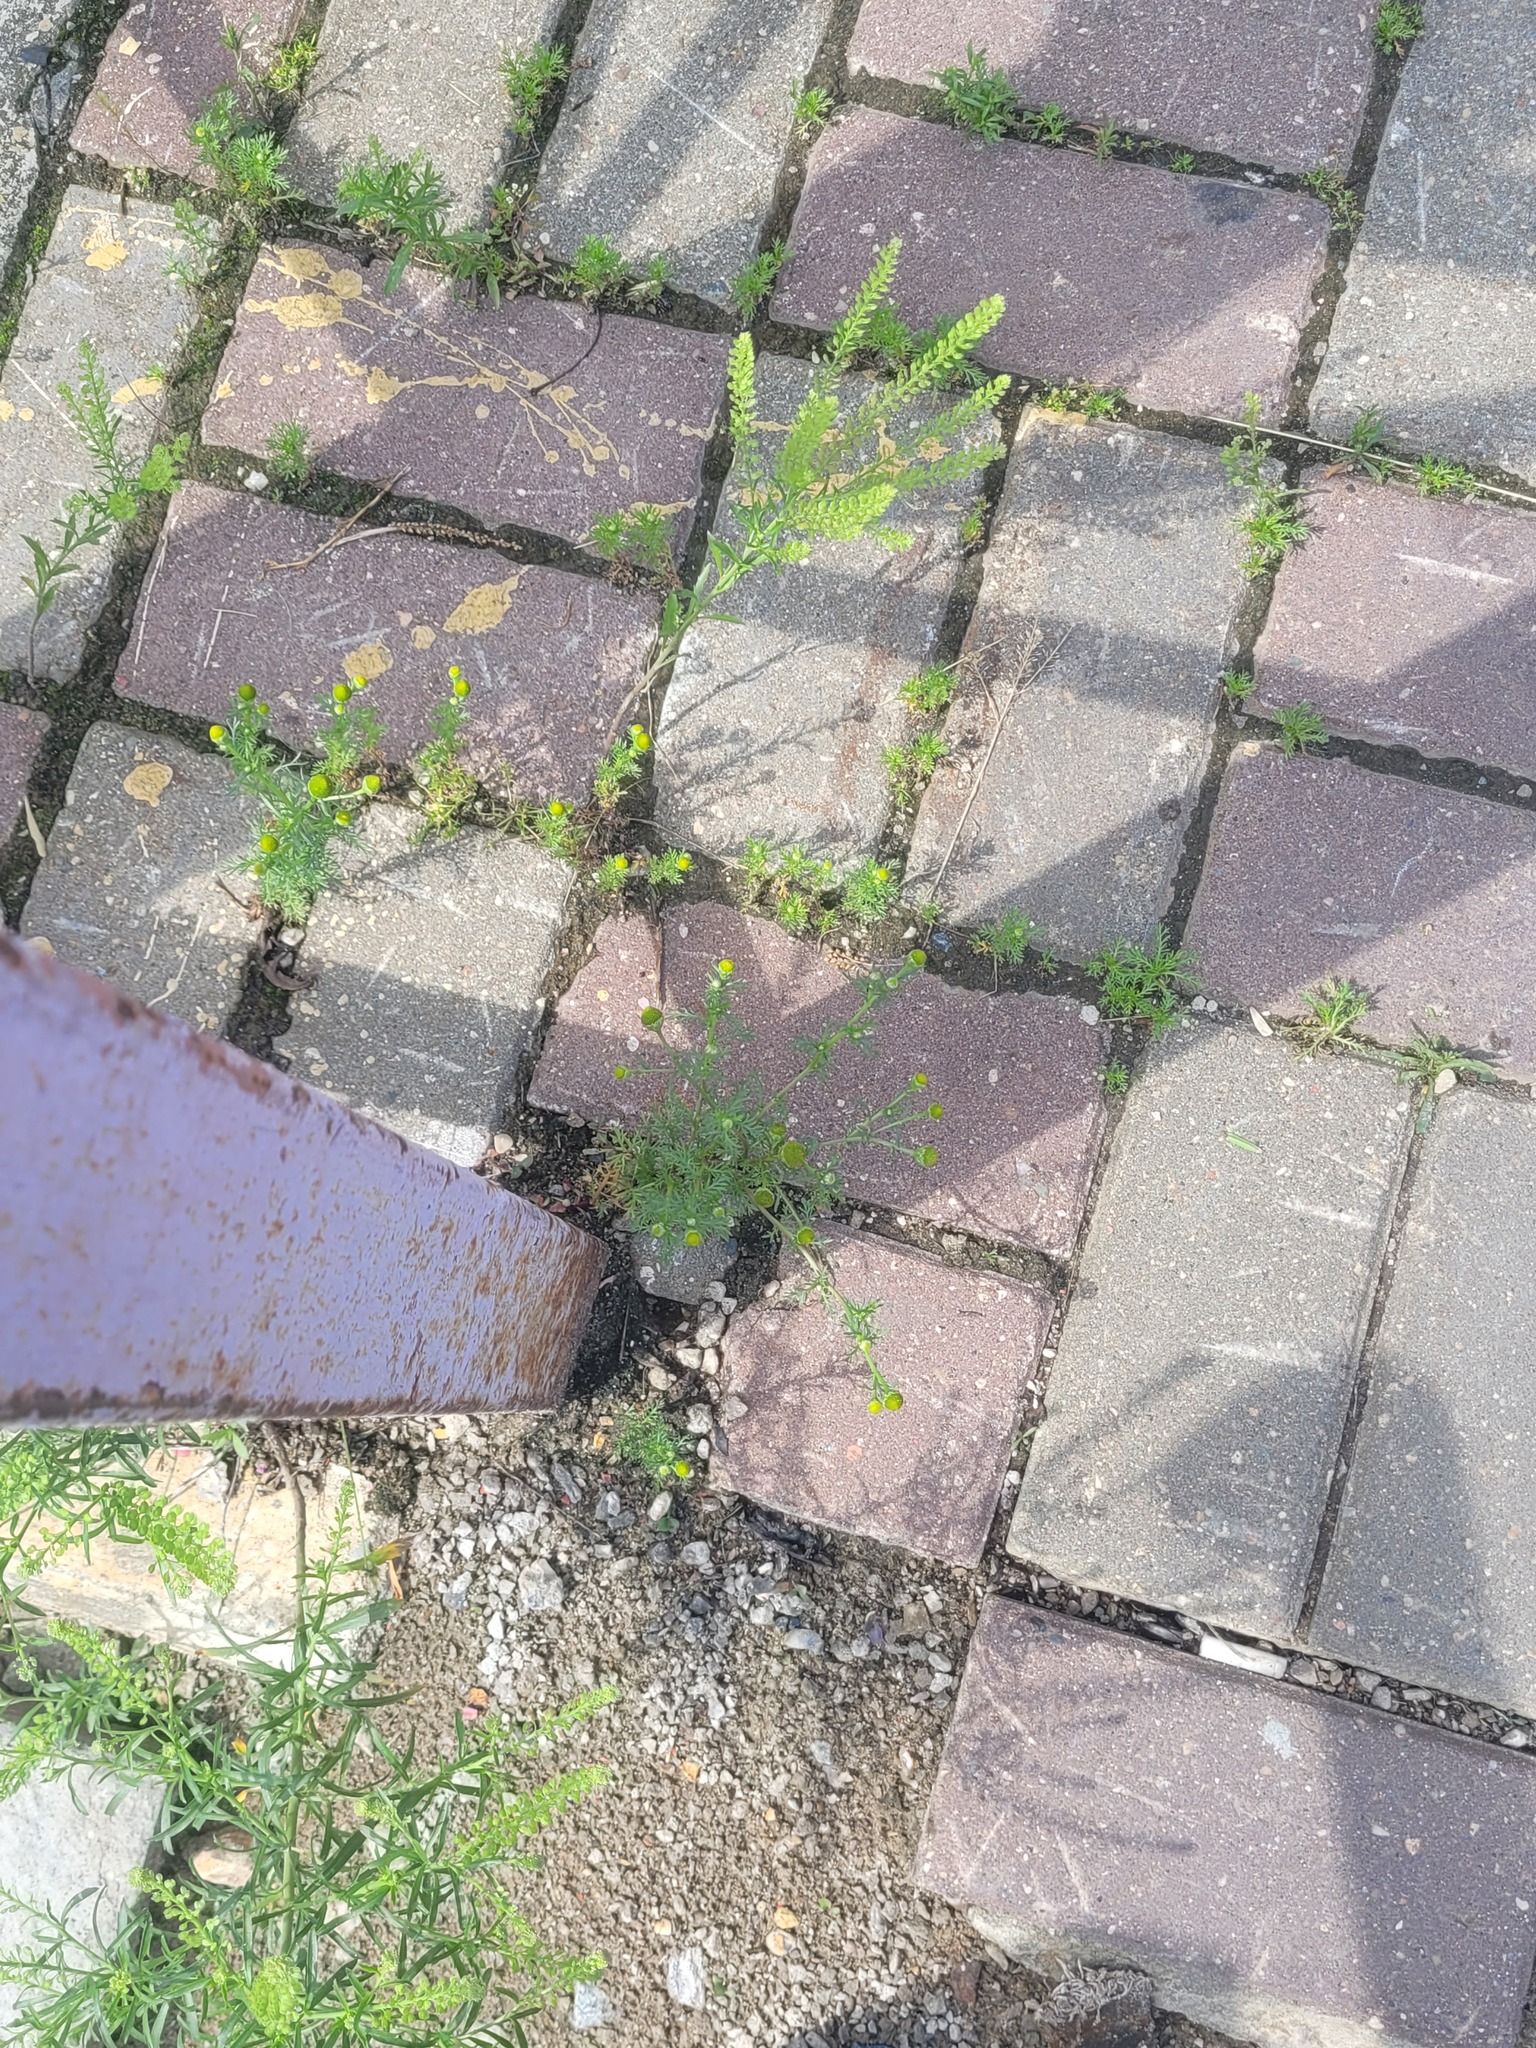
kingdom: Plantae
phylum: Tracheophyta
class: Magnoliopsida
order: Asterales
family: Asteraceae
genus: Matricaria
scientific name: Matricaria discoidea
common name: Disc mayweed
